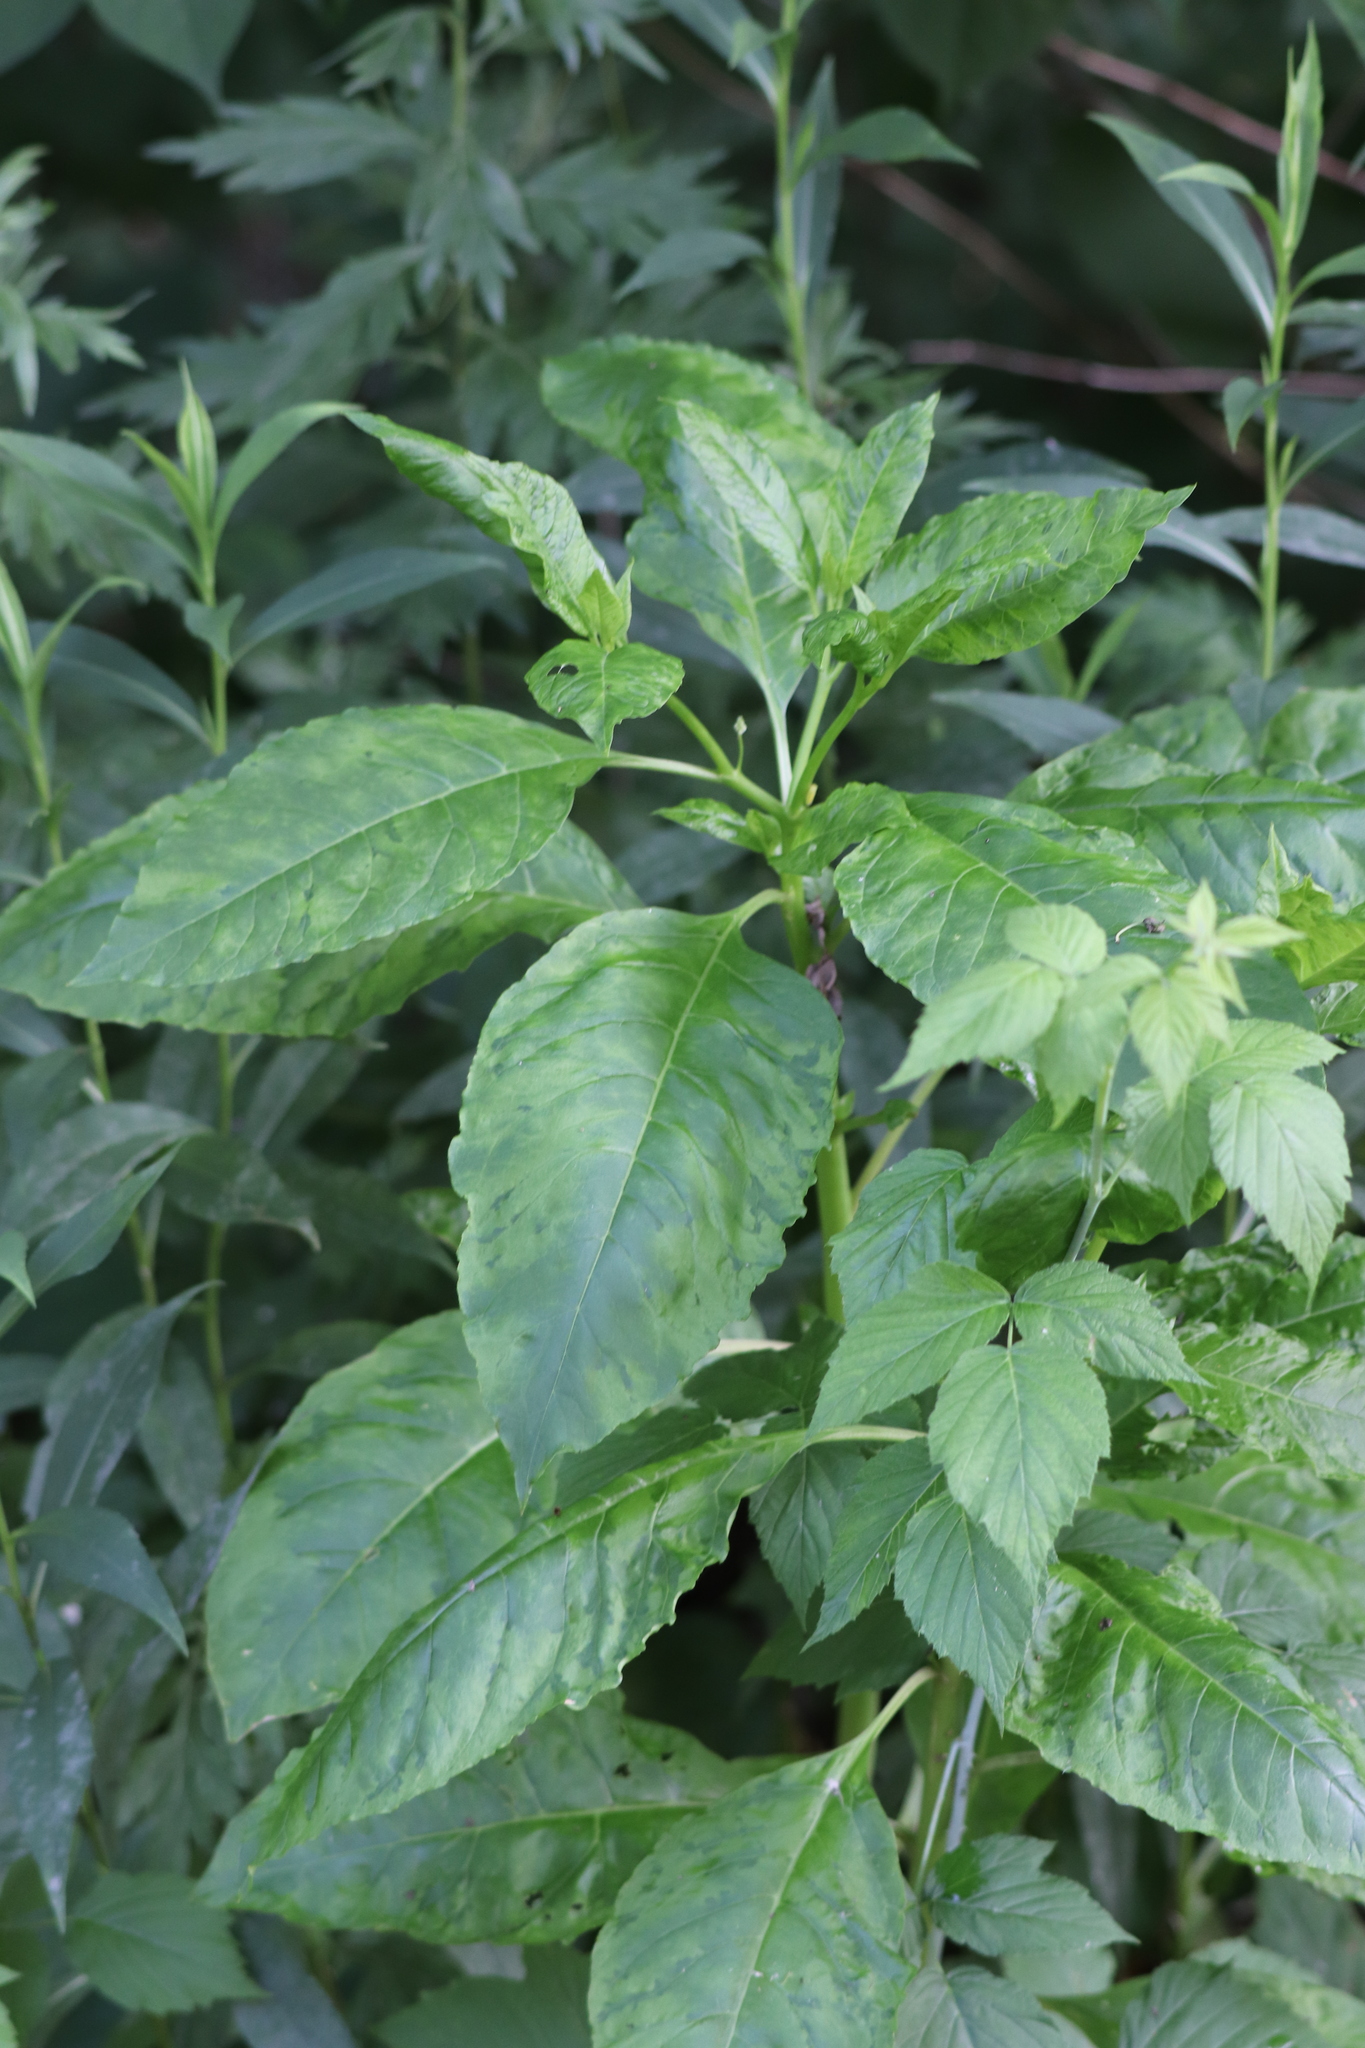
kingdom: Plantae
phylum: Tracheophyta
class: Magnoliopsida
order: Caryophyllales
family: Phytolaccaceae
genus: Phytolacca
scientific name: Phytolacca americana
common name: American pokeweed
